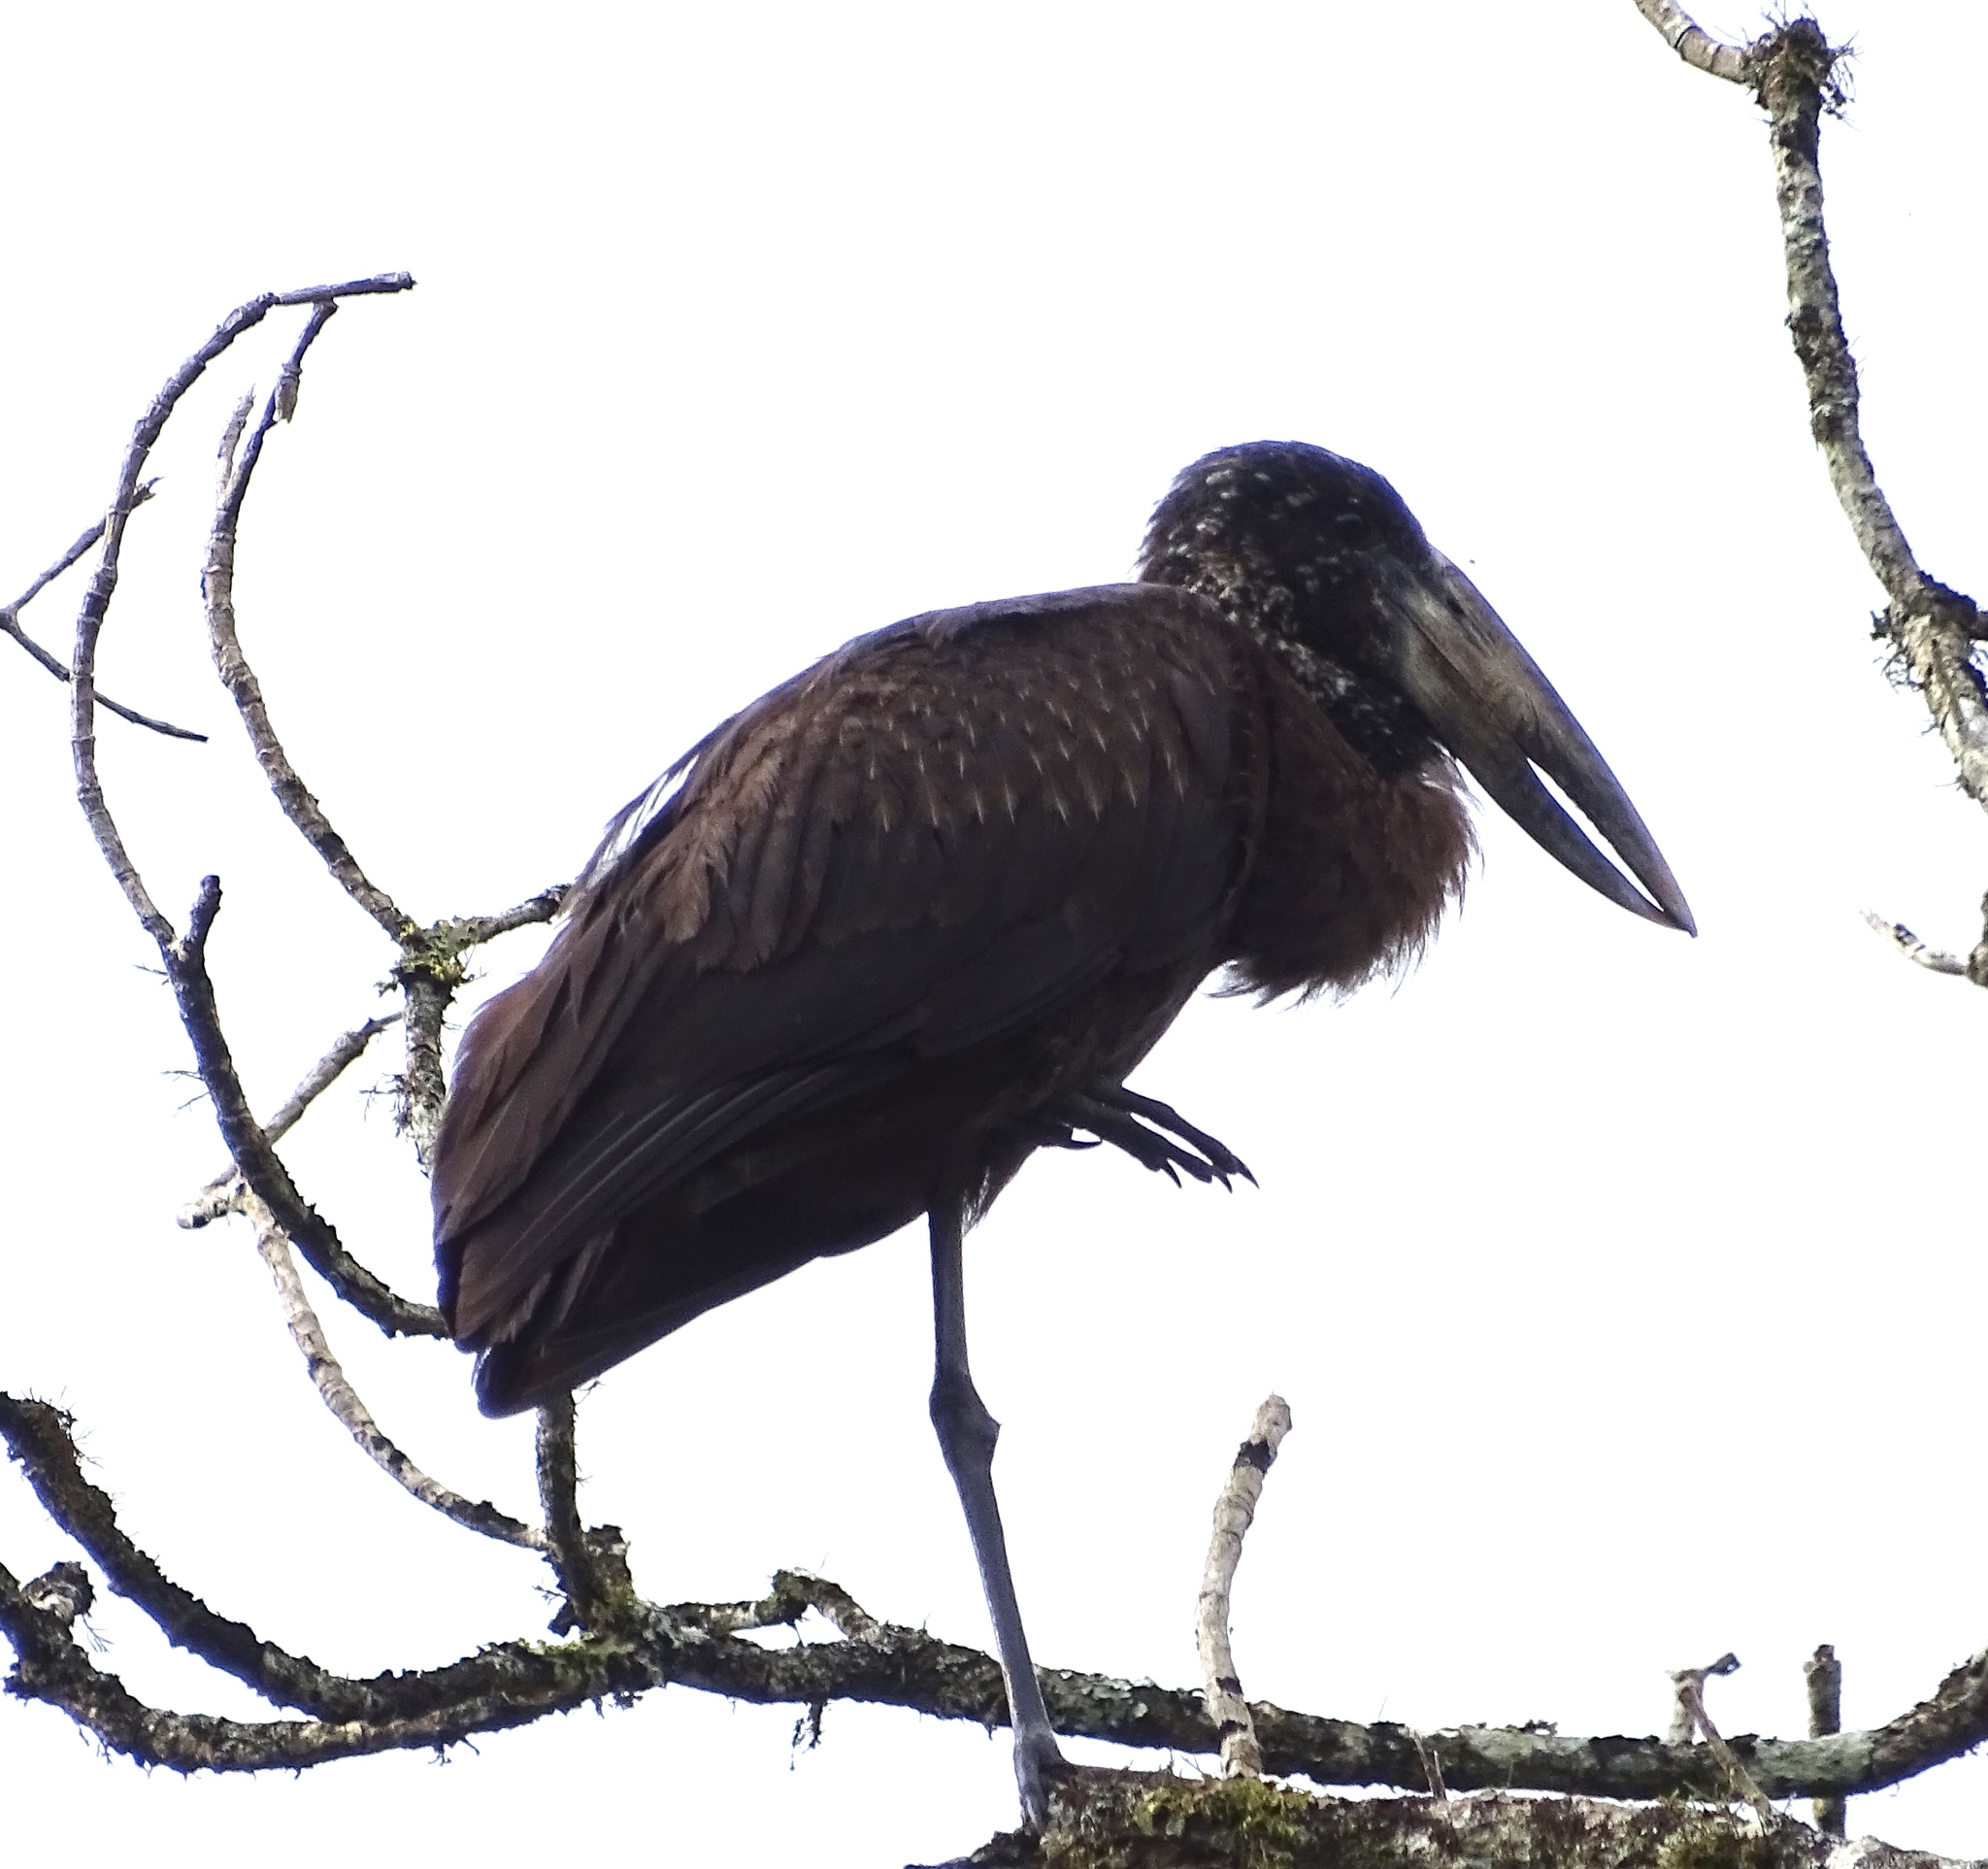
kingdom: Animalia
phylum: Chordata
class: Aves
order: Ciconiiformes
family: Ciconiidae
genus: Anastomus
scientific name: Anastomus lamelligerus
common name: African openbill
